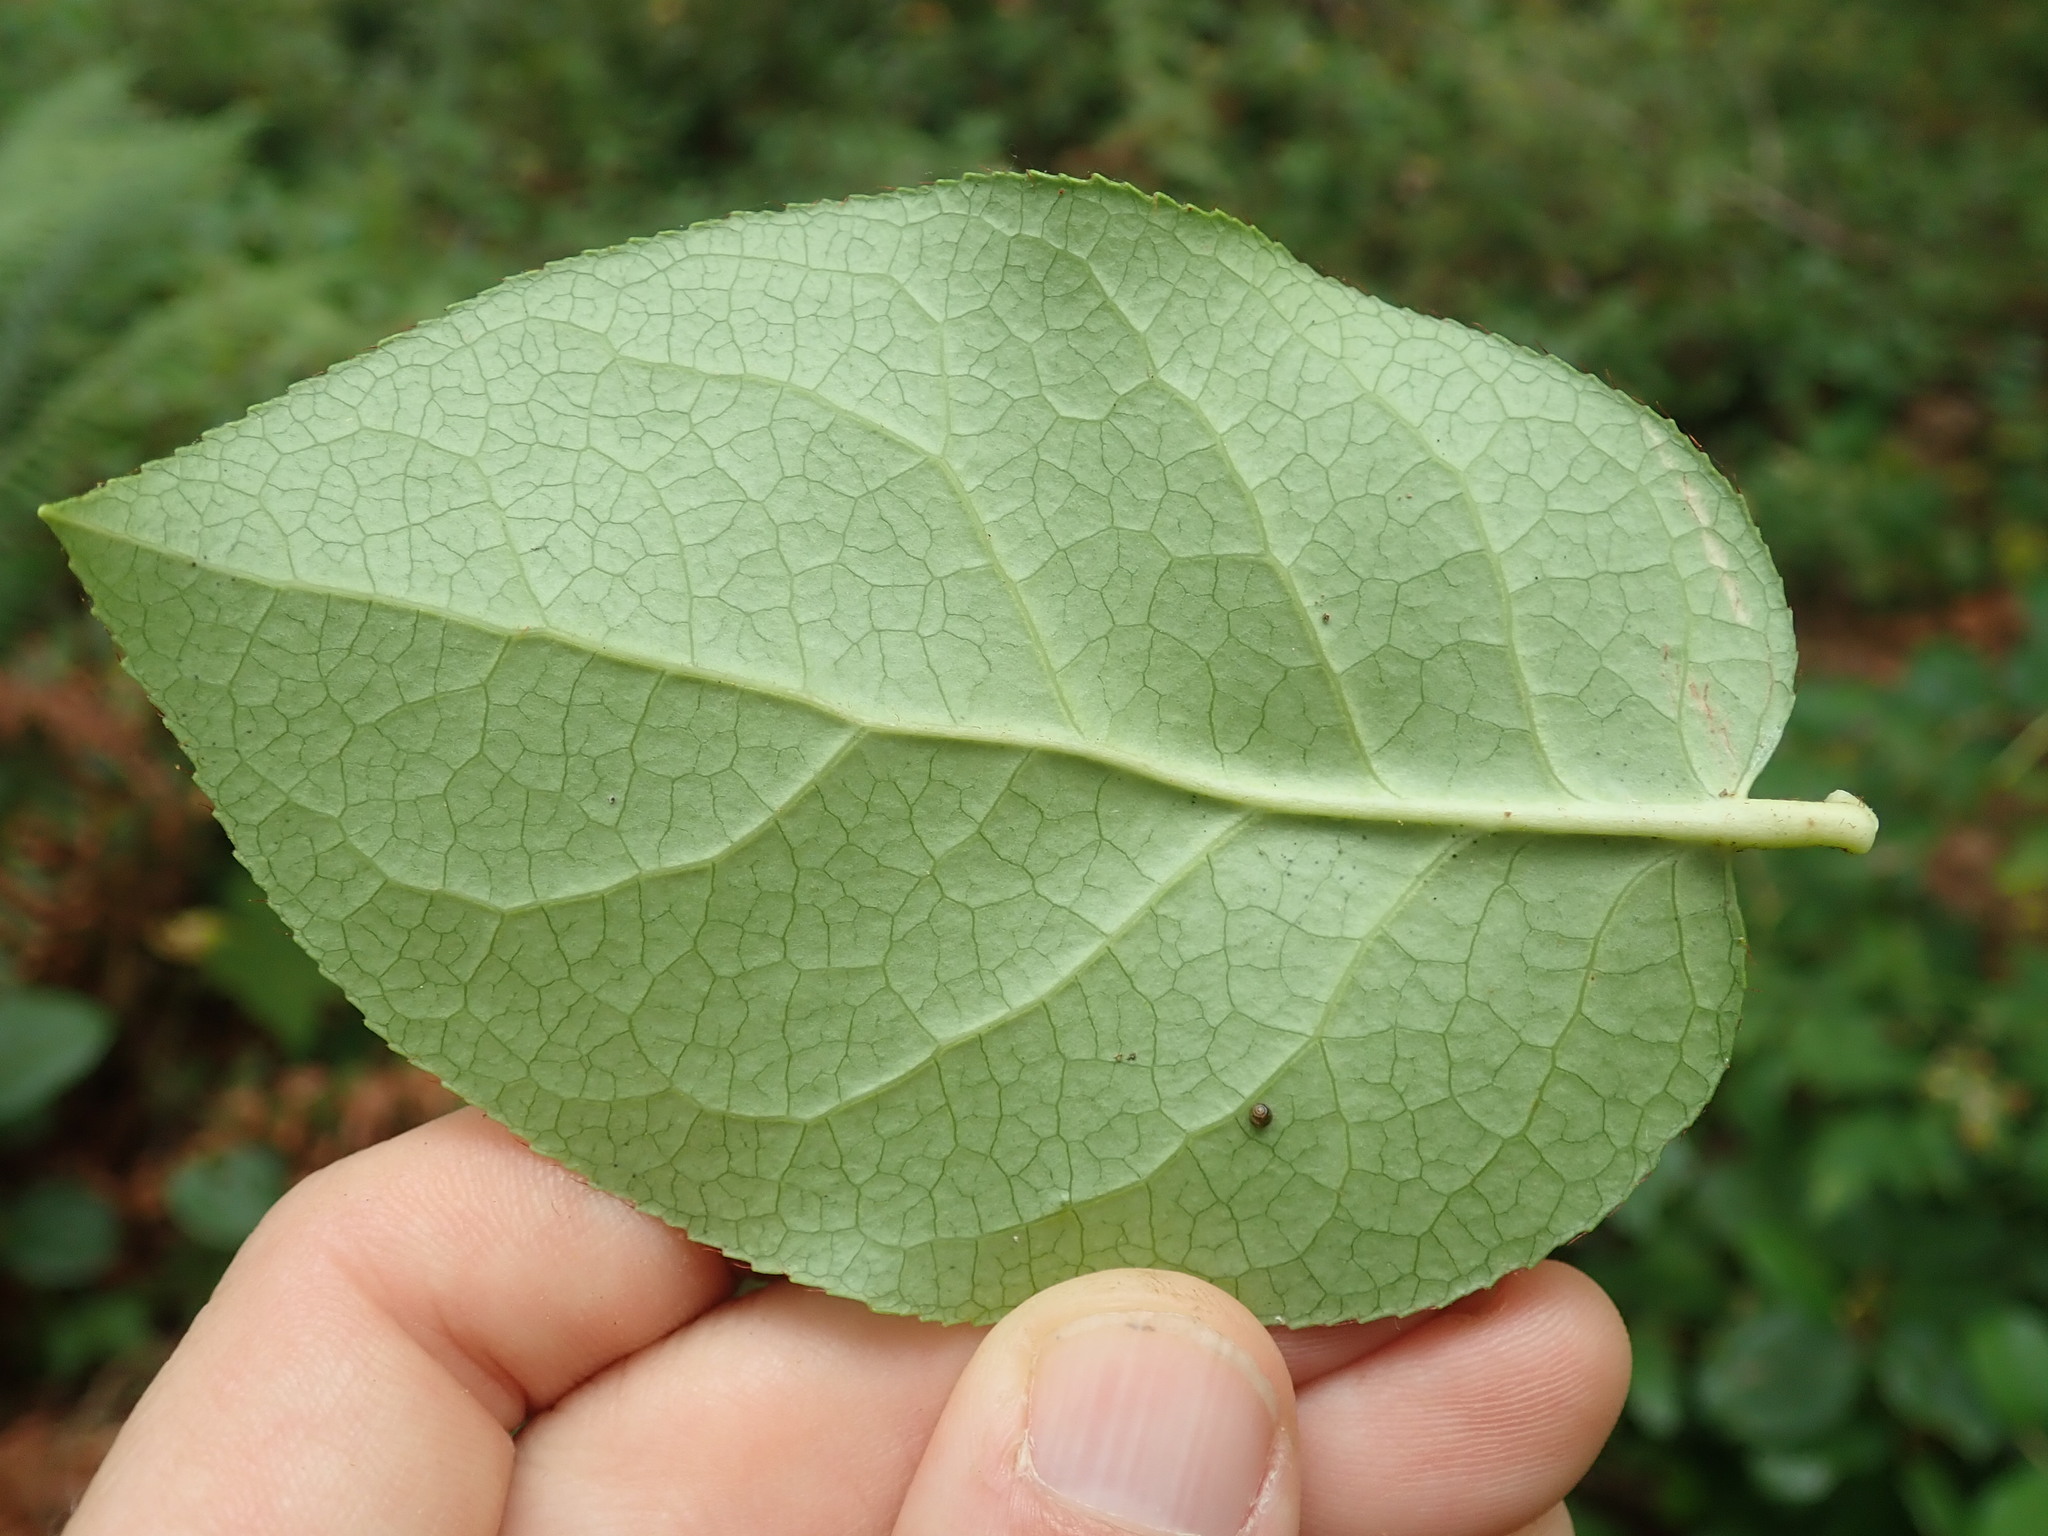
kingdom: Plantae
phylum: Tracheophyta
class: Magnoliopsida
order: Ericales
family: Ericaceae
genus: Gaultheria
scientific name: Gaultheria shallon
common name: Shallon
